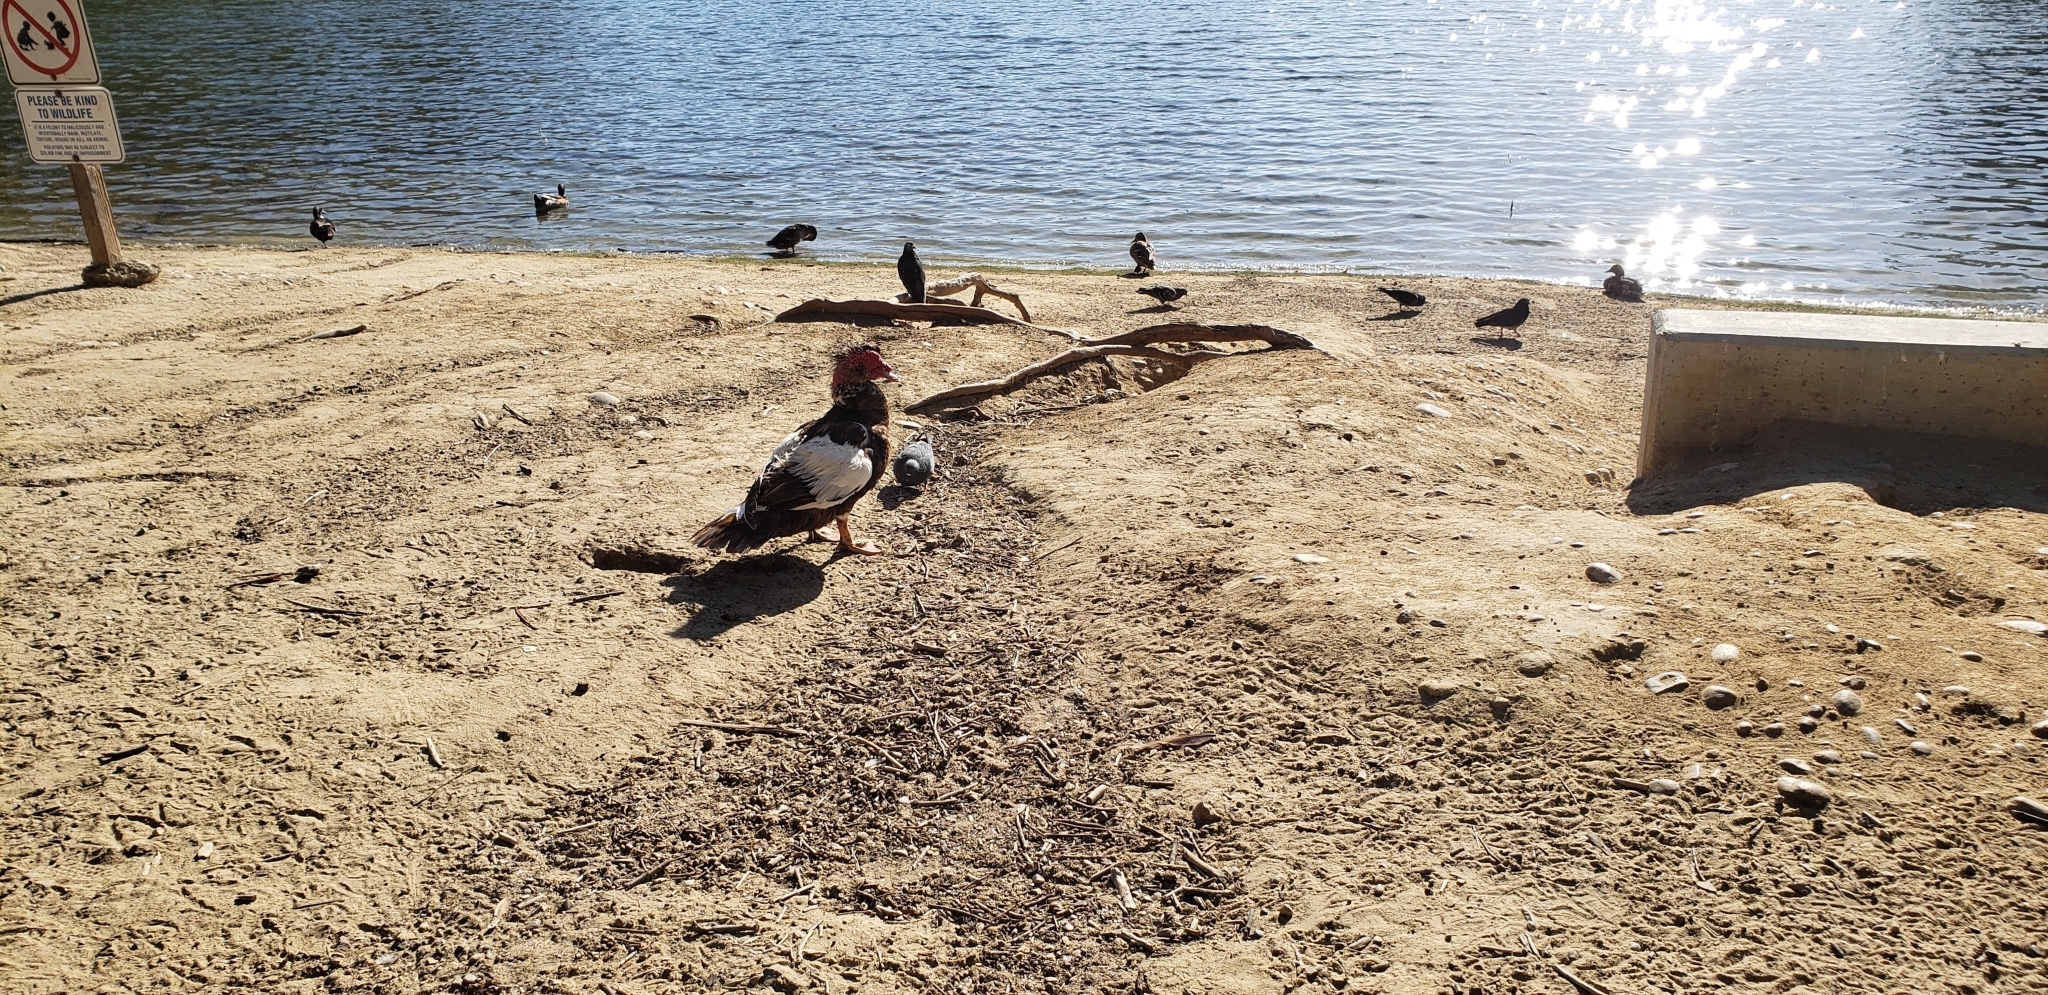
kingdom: Animalia
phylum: Chordata
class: Aves
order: Anseriformes
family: Anatidae
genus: Cairina
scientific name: Cairina moschata
